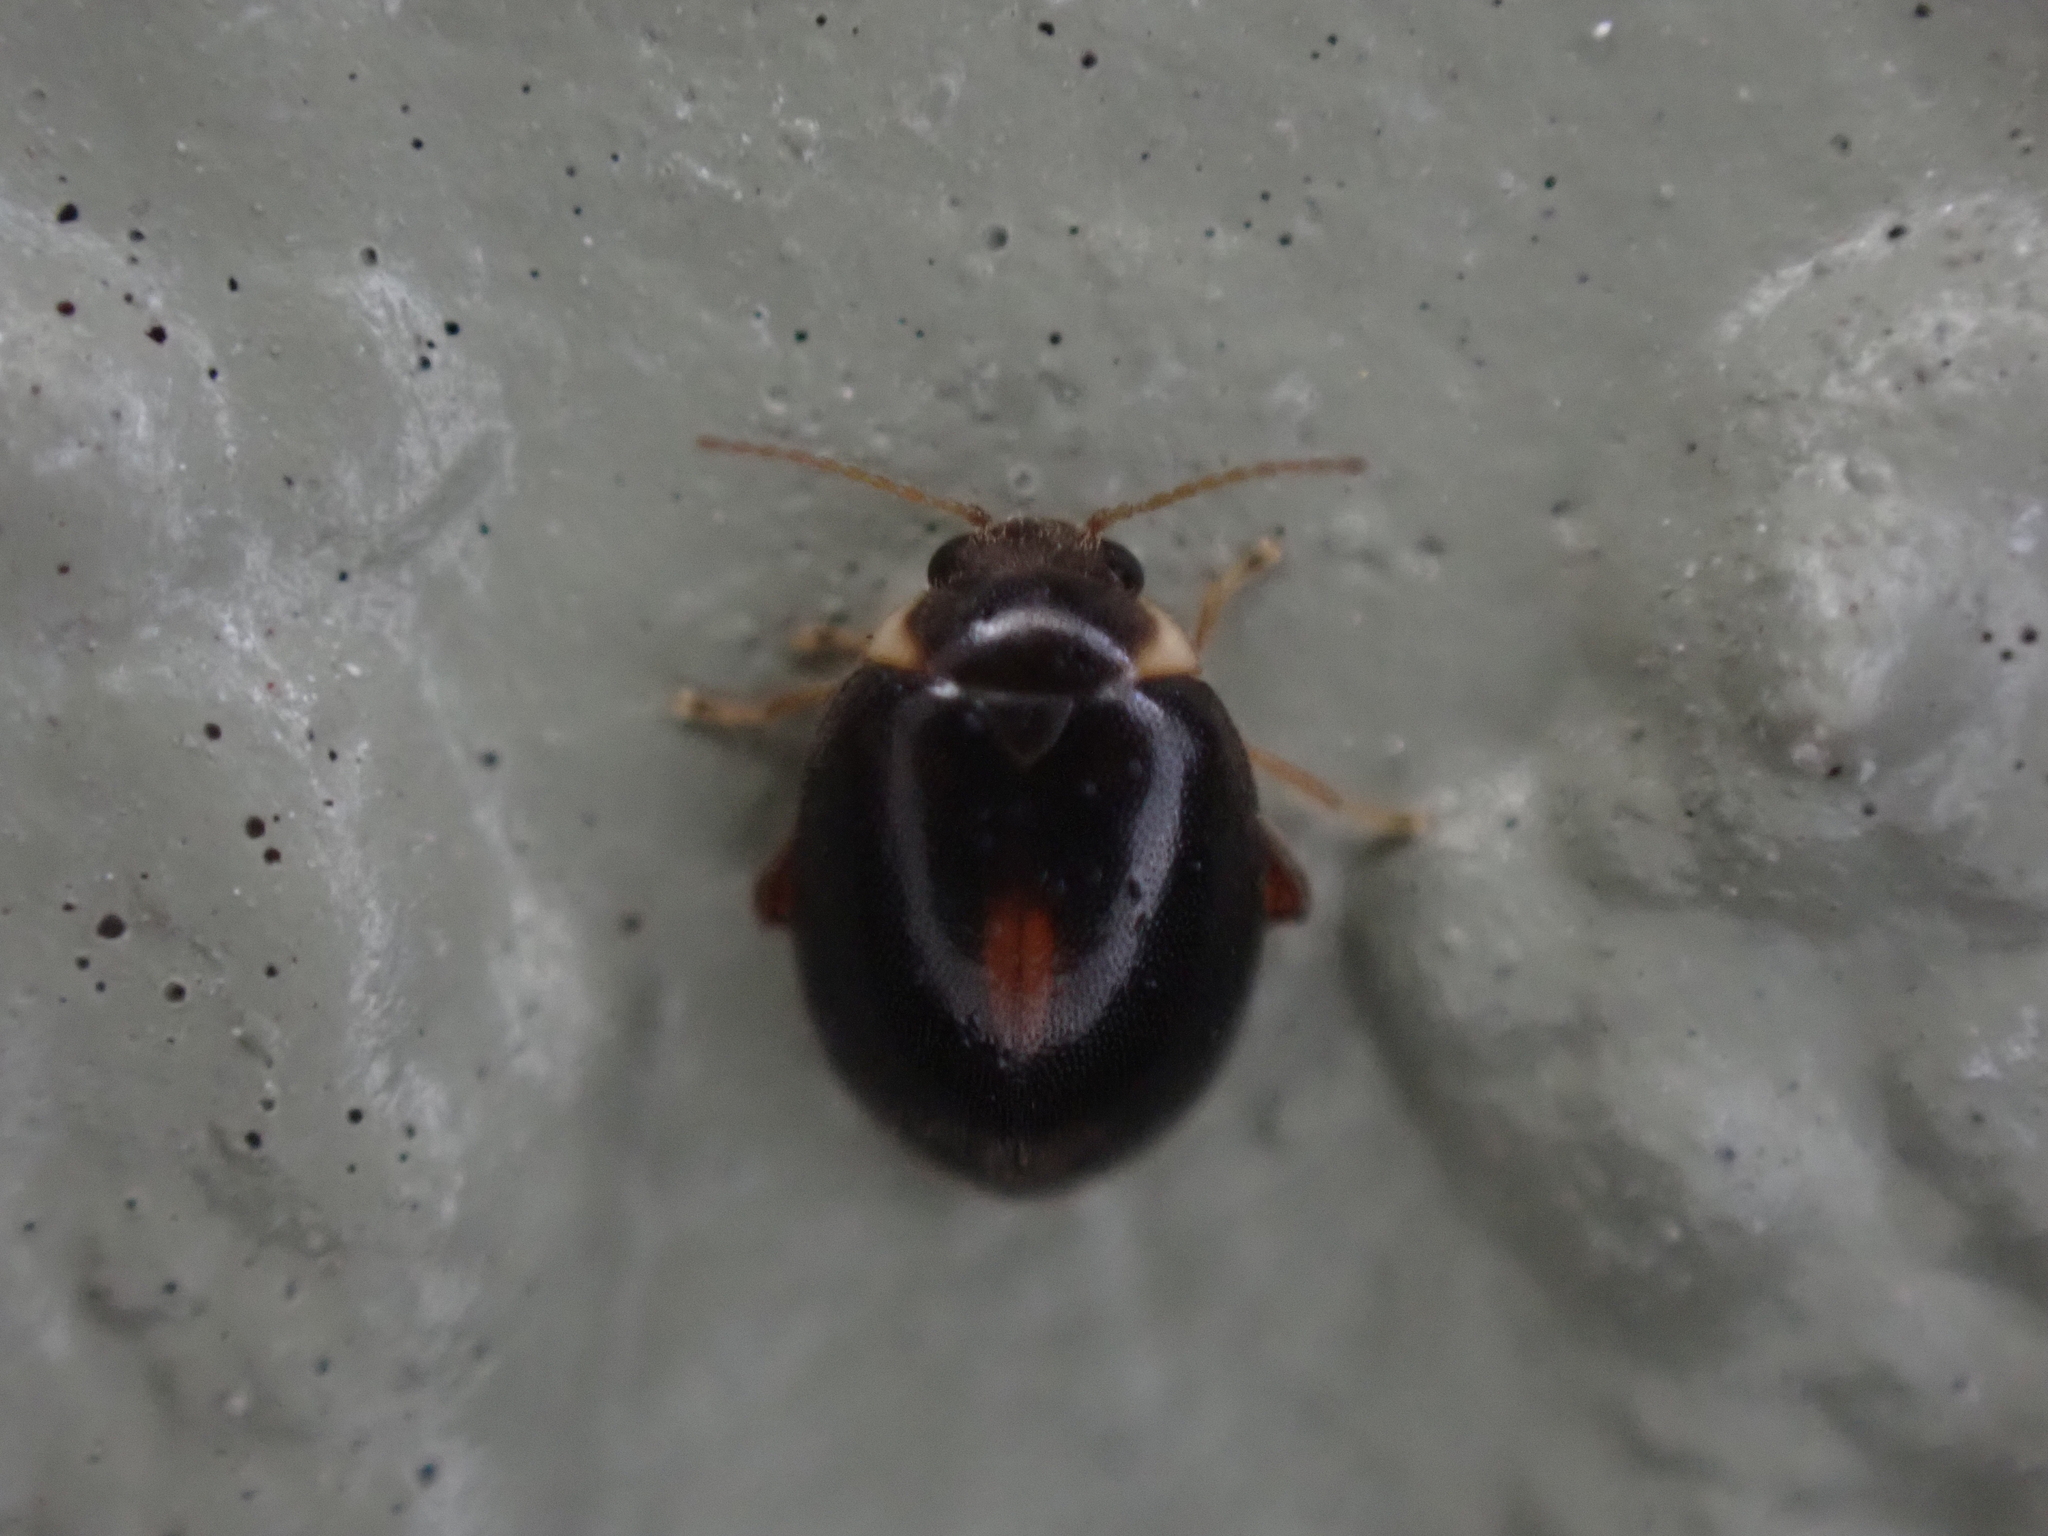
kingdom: Animalia
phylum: Arthropoda
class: Insecta
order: Coleoptera
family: Scirtidae
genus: Scirtes
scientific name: Scirtes orbiculatus
